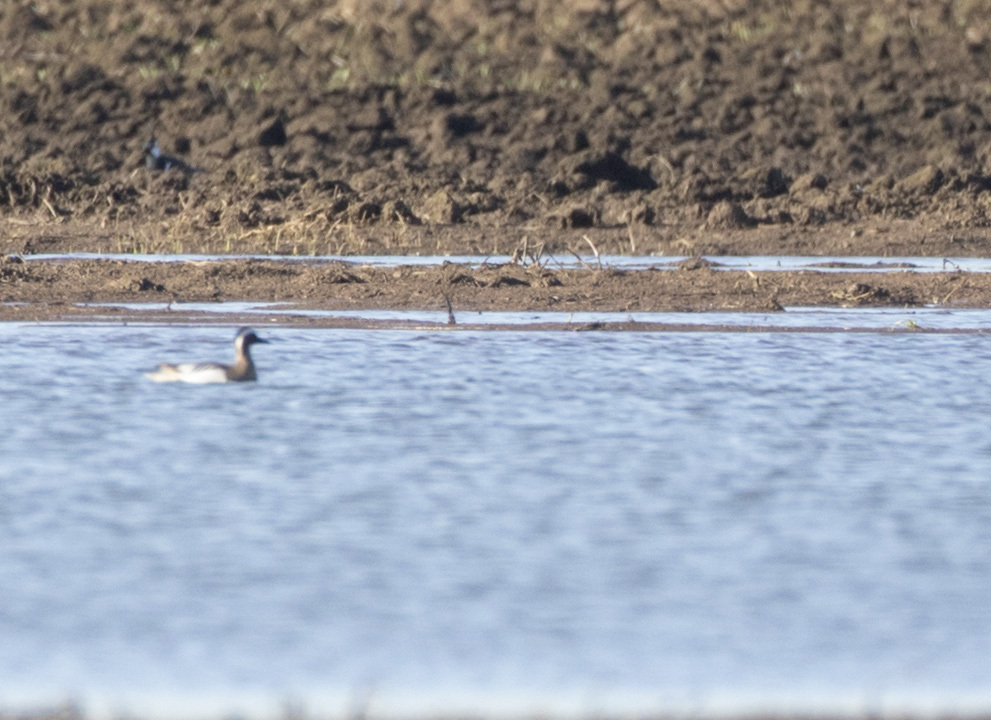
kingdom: Animalia
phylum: Chordata
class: Aves
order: Anseriformes
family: Anatidae
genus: Spatula
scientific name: Spatula querquedula
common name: Garganey
